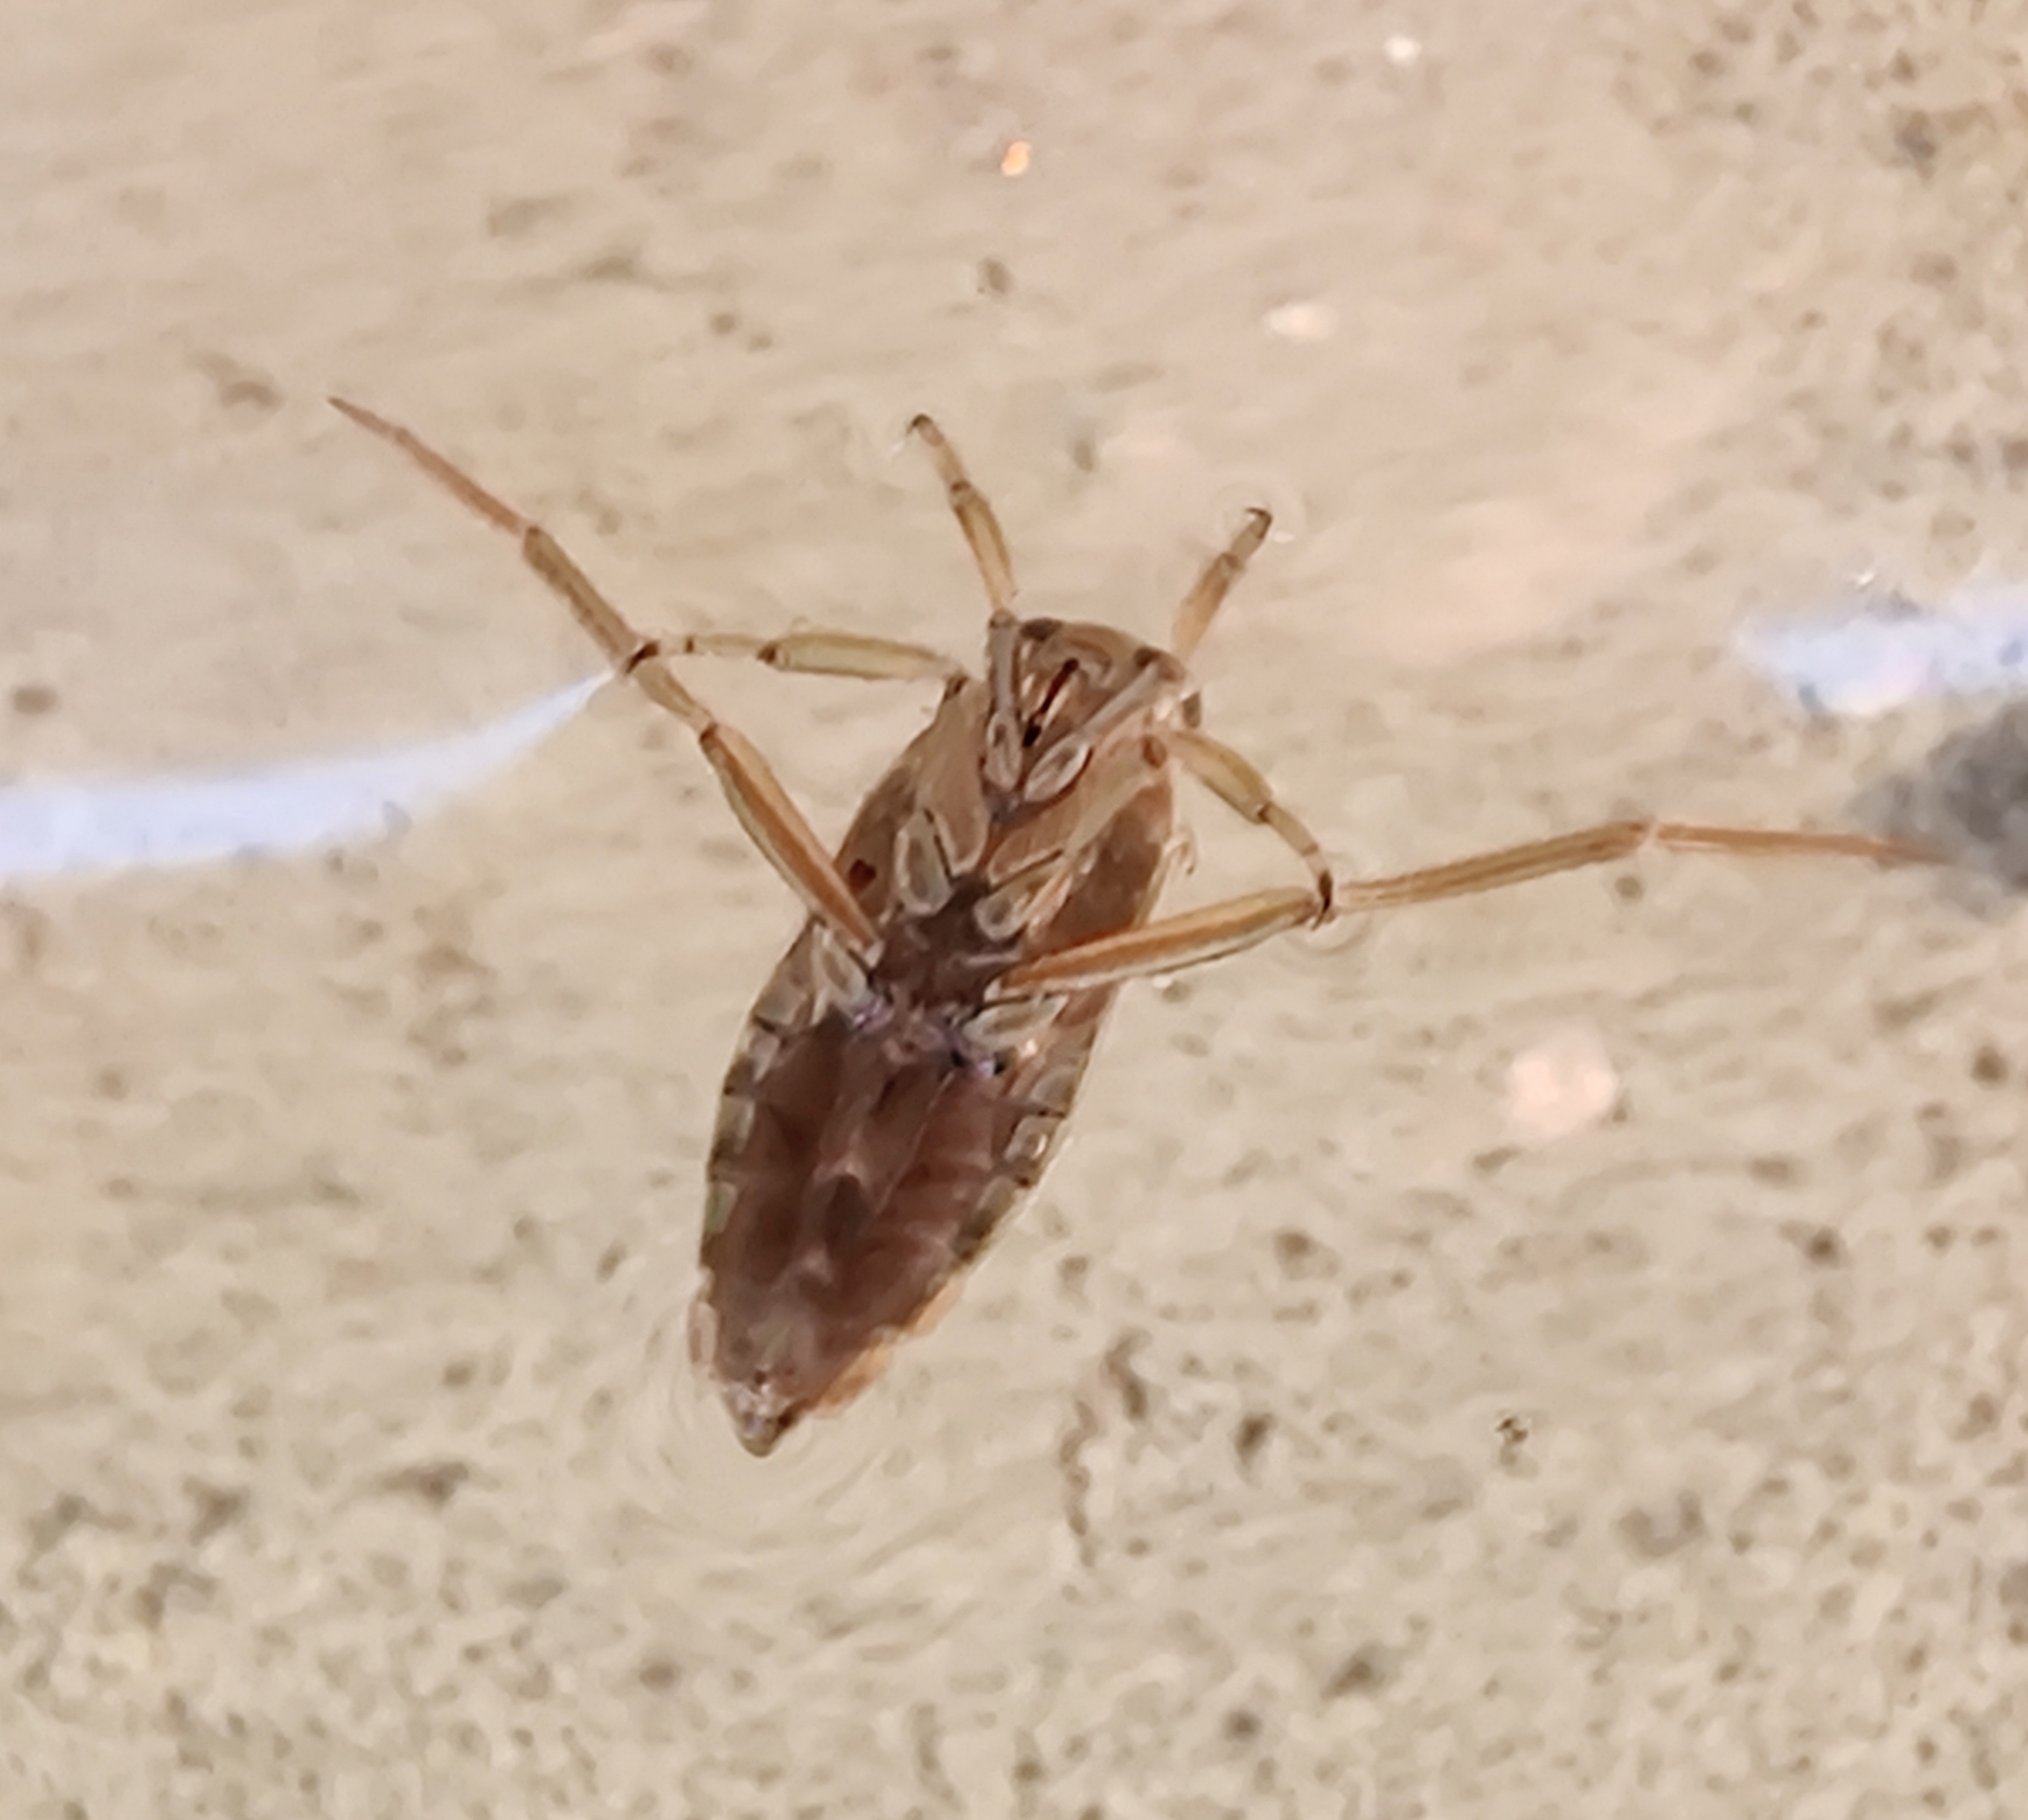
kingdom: Animalia
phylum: Arthropoda
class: Insecta
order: Hemiptera
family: Notonectidae
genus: Notonecta
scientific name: Notonecta
